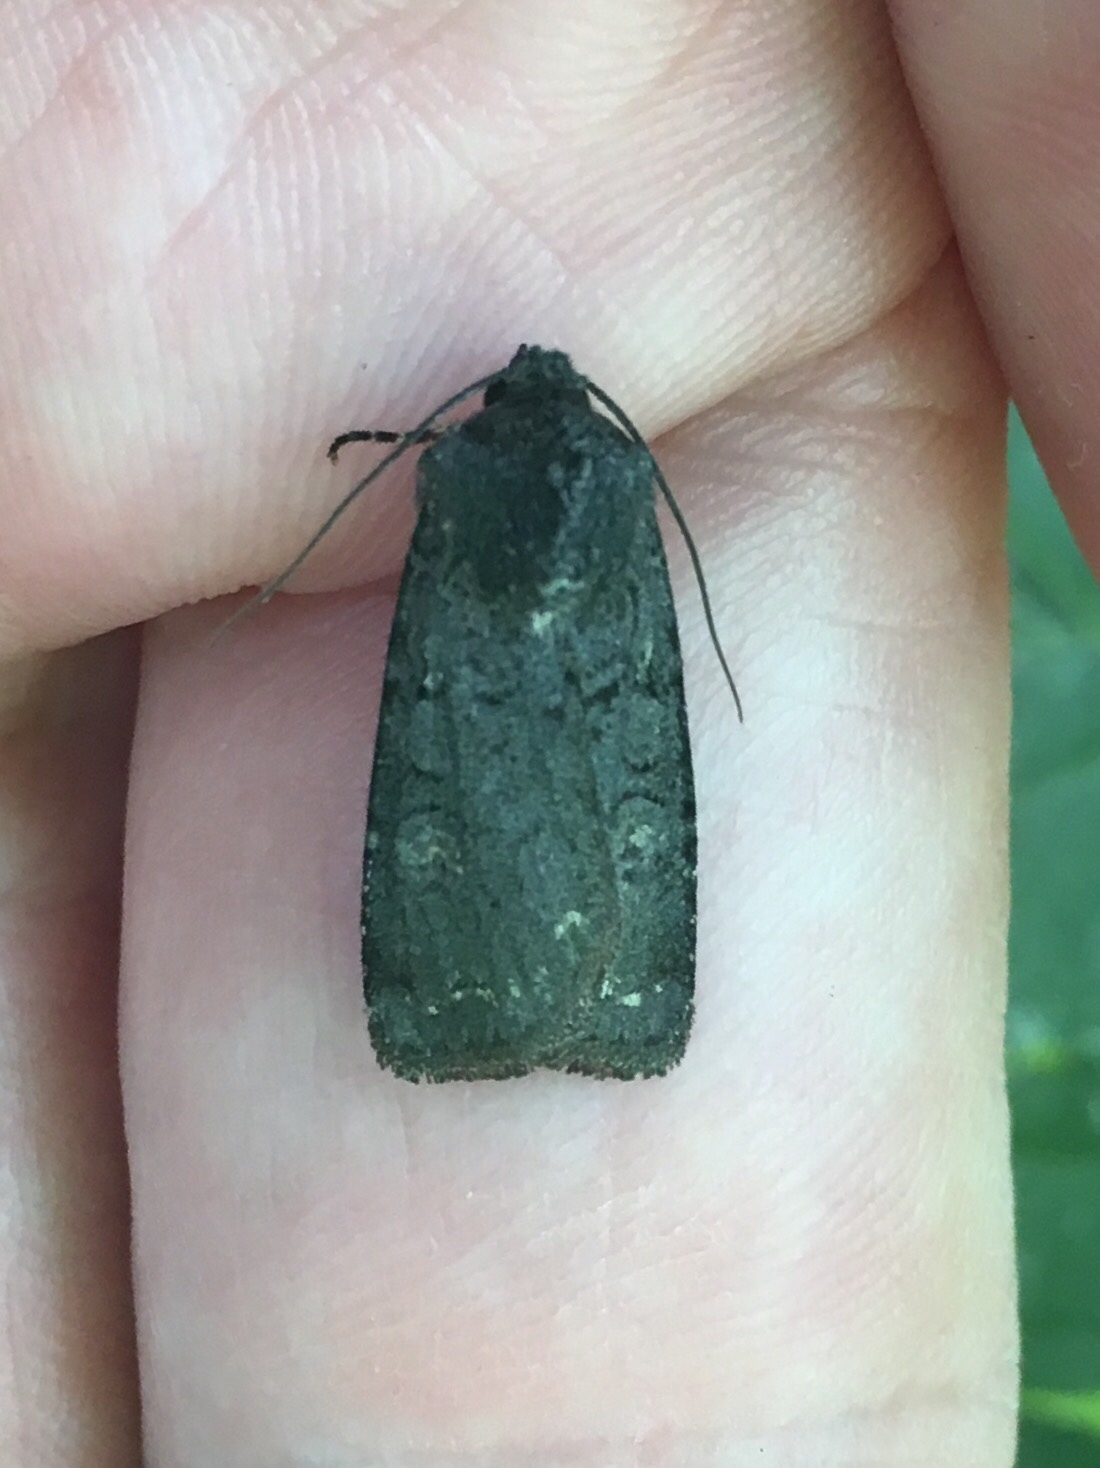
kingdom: Animalia
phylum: Arthropoda
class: Insecta
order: Lepidoptera
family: Noctuidae
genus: Euxoa
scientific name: Euxoa velleripennis
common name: Fleece-winged dart
